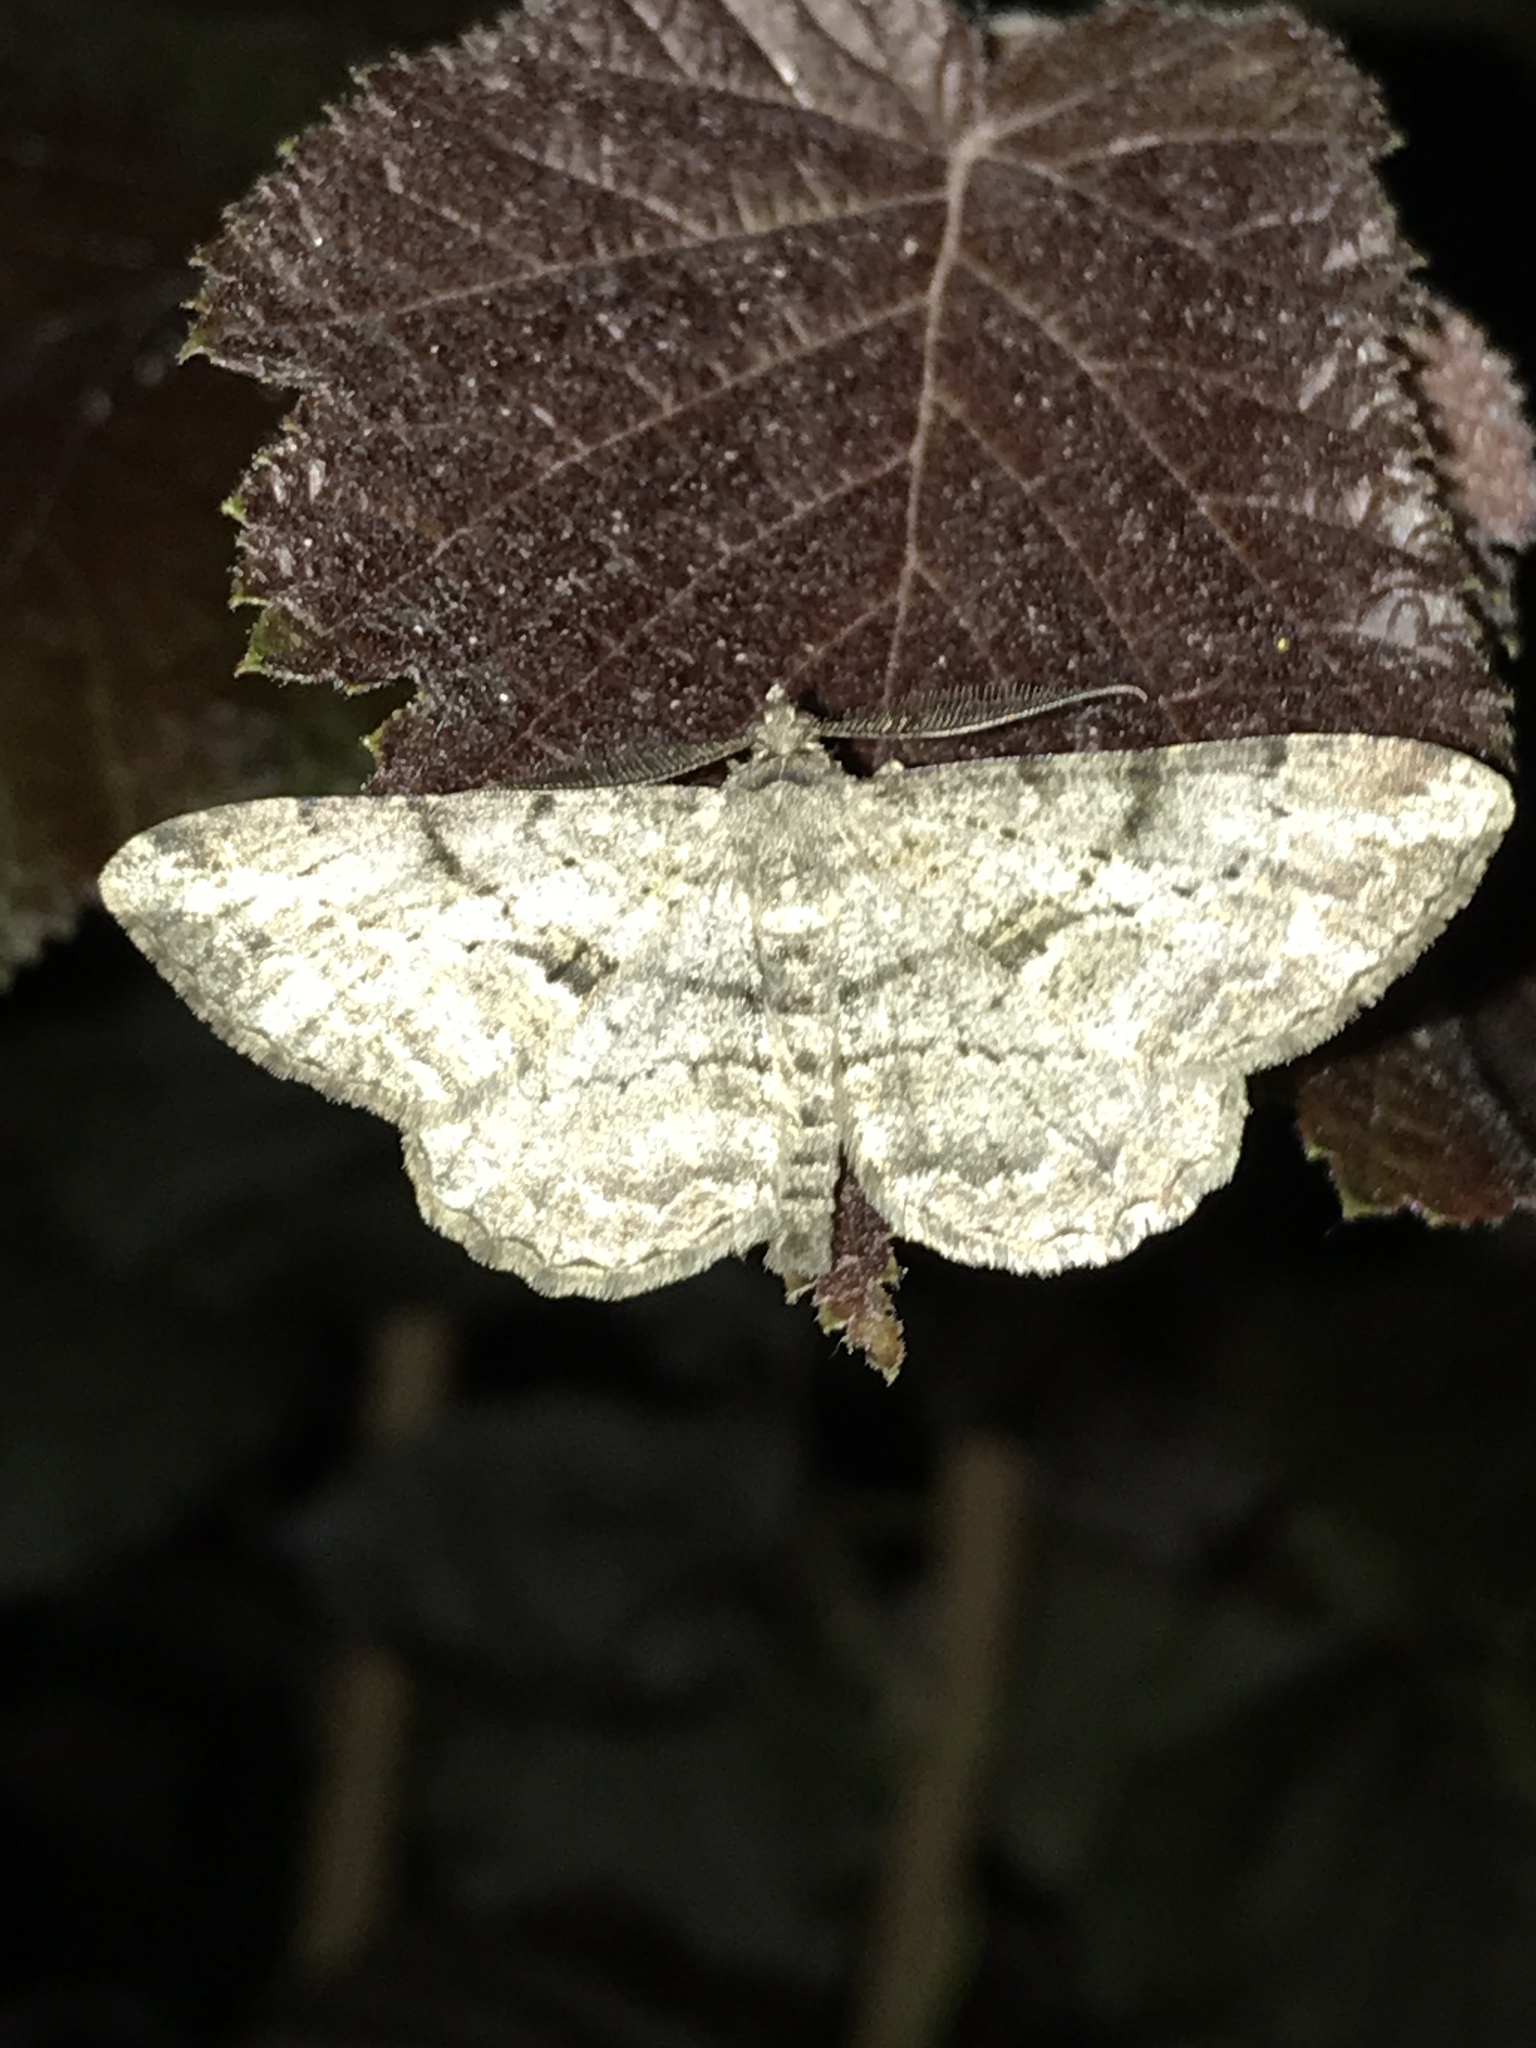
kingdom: Animalia
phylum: Arthropoda
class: Insecta
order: Lepidoptera
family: Geometridae
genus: Peribatodes
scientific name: Peribatodes rhomboidaria
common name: Willow beauty
